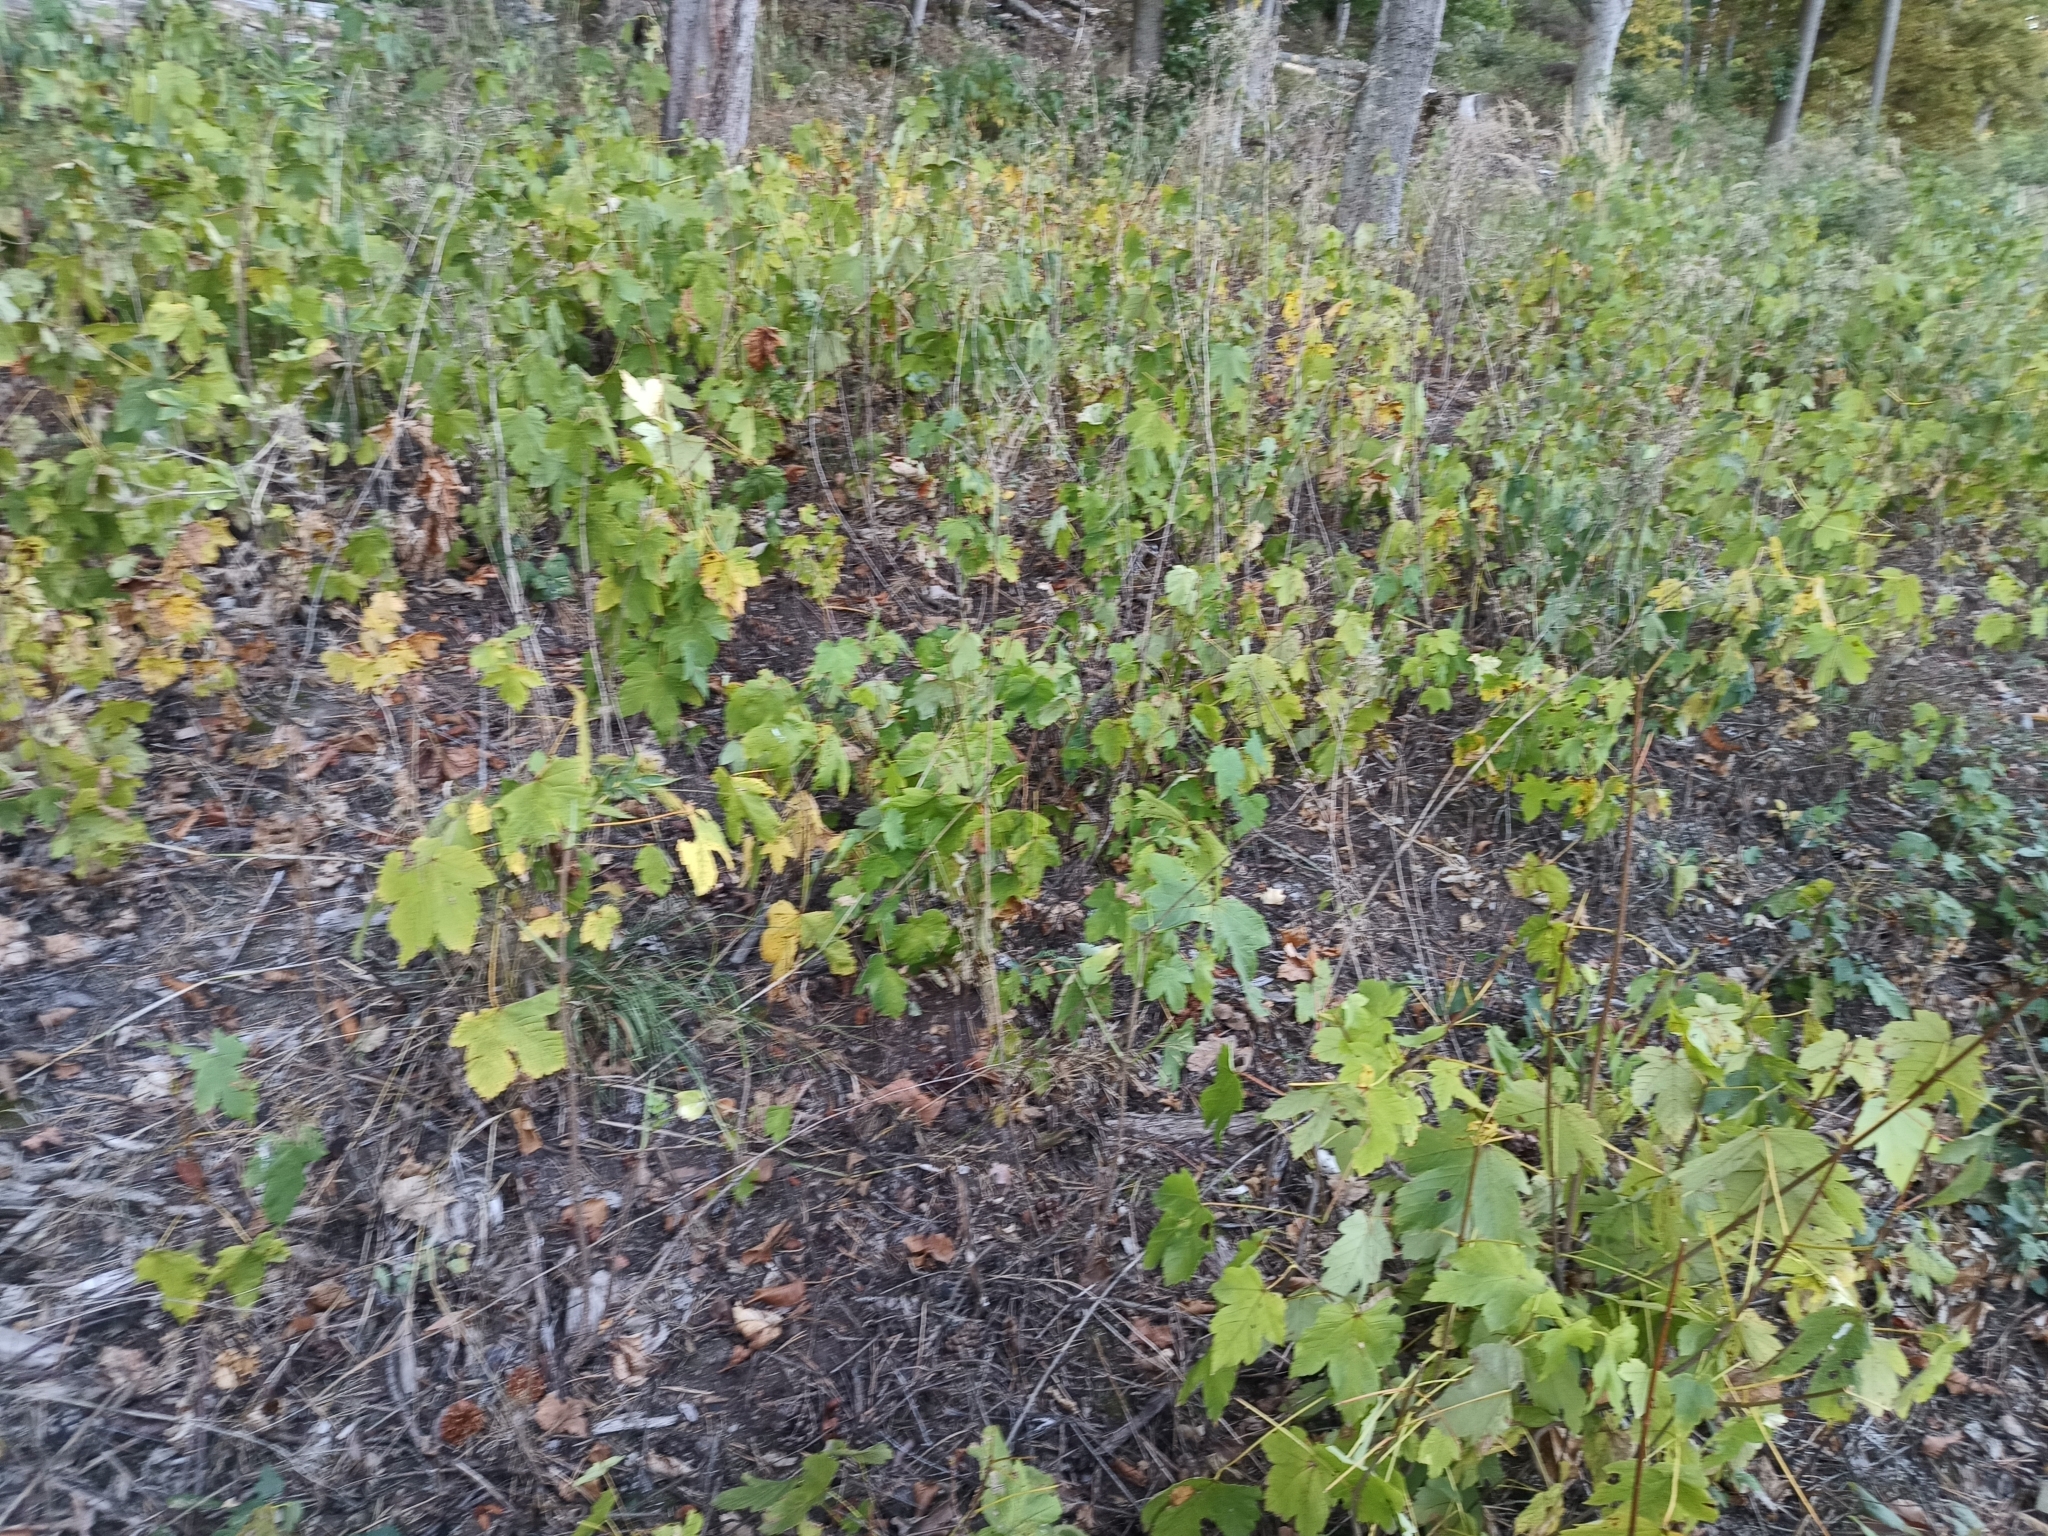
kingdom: Plantae
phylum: Tracheophyta
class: Magnoliopsida
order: Sapindales
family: Sapindaceae
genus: Acer
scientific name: Acer pseudoplatanus
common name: Sycamore
